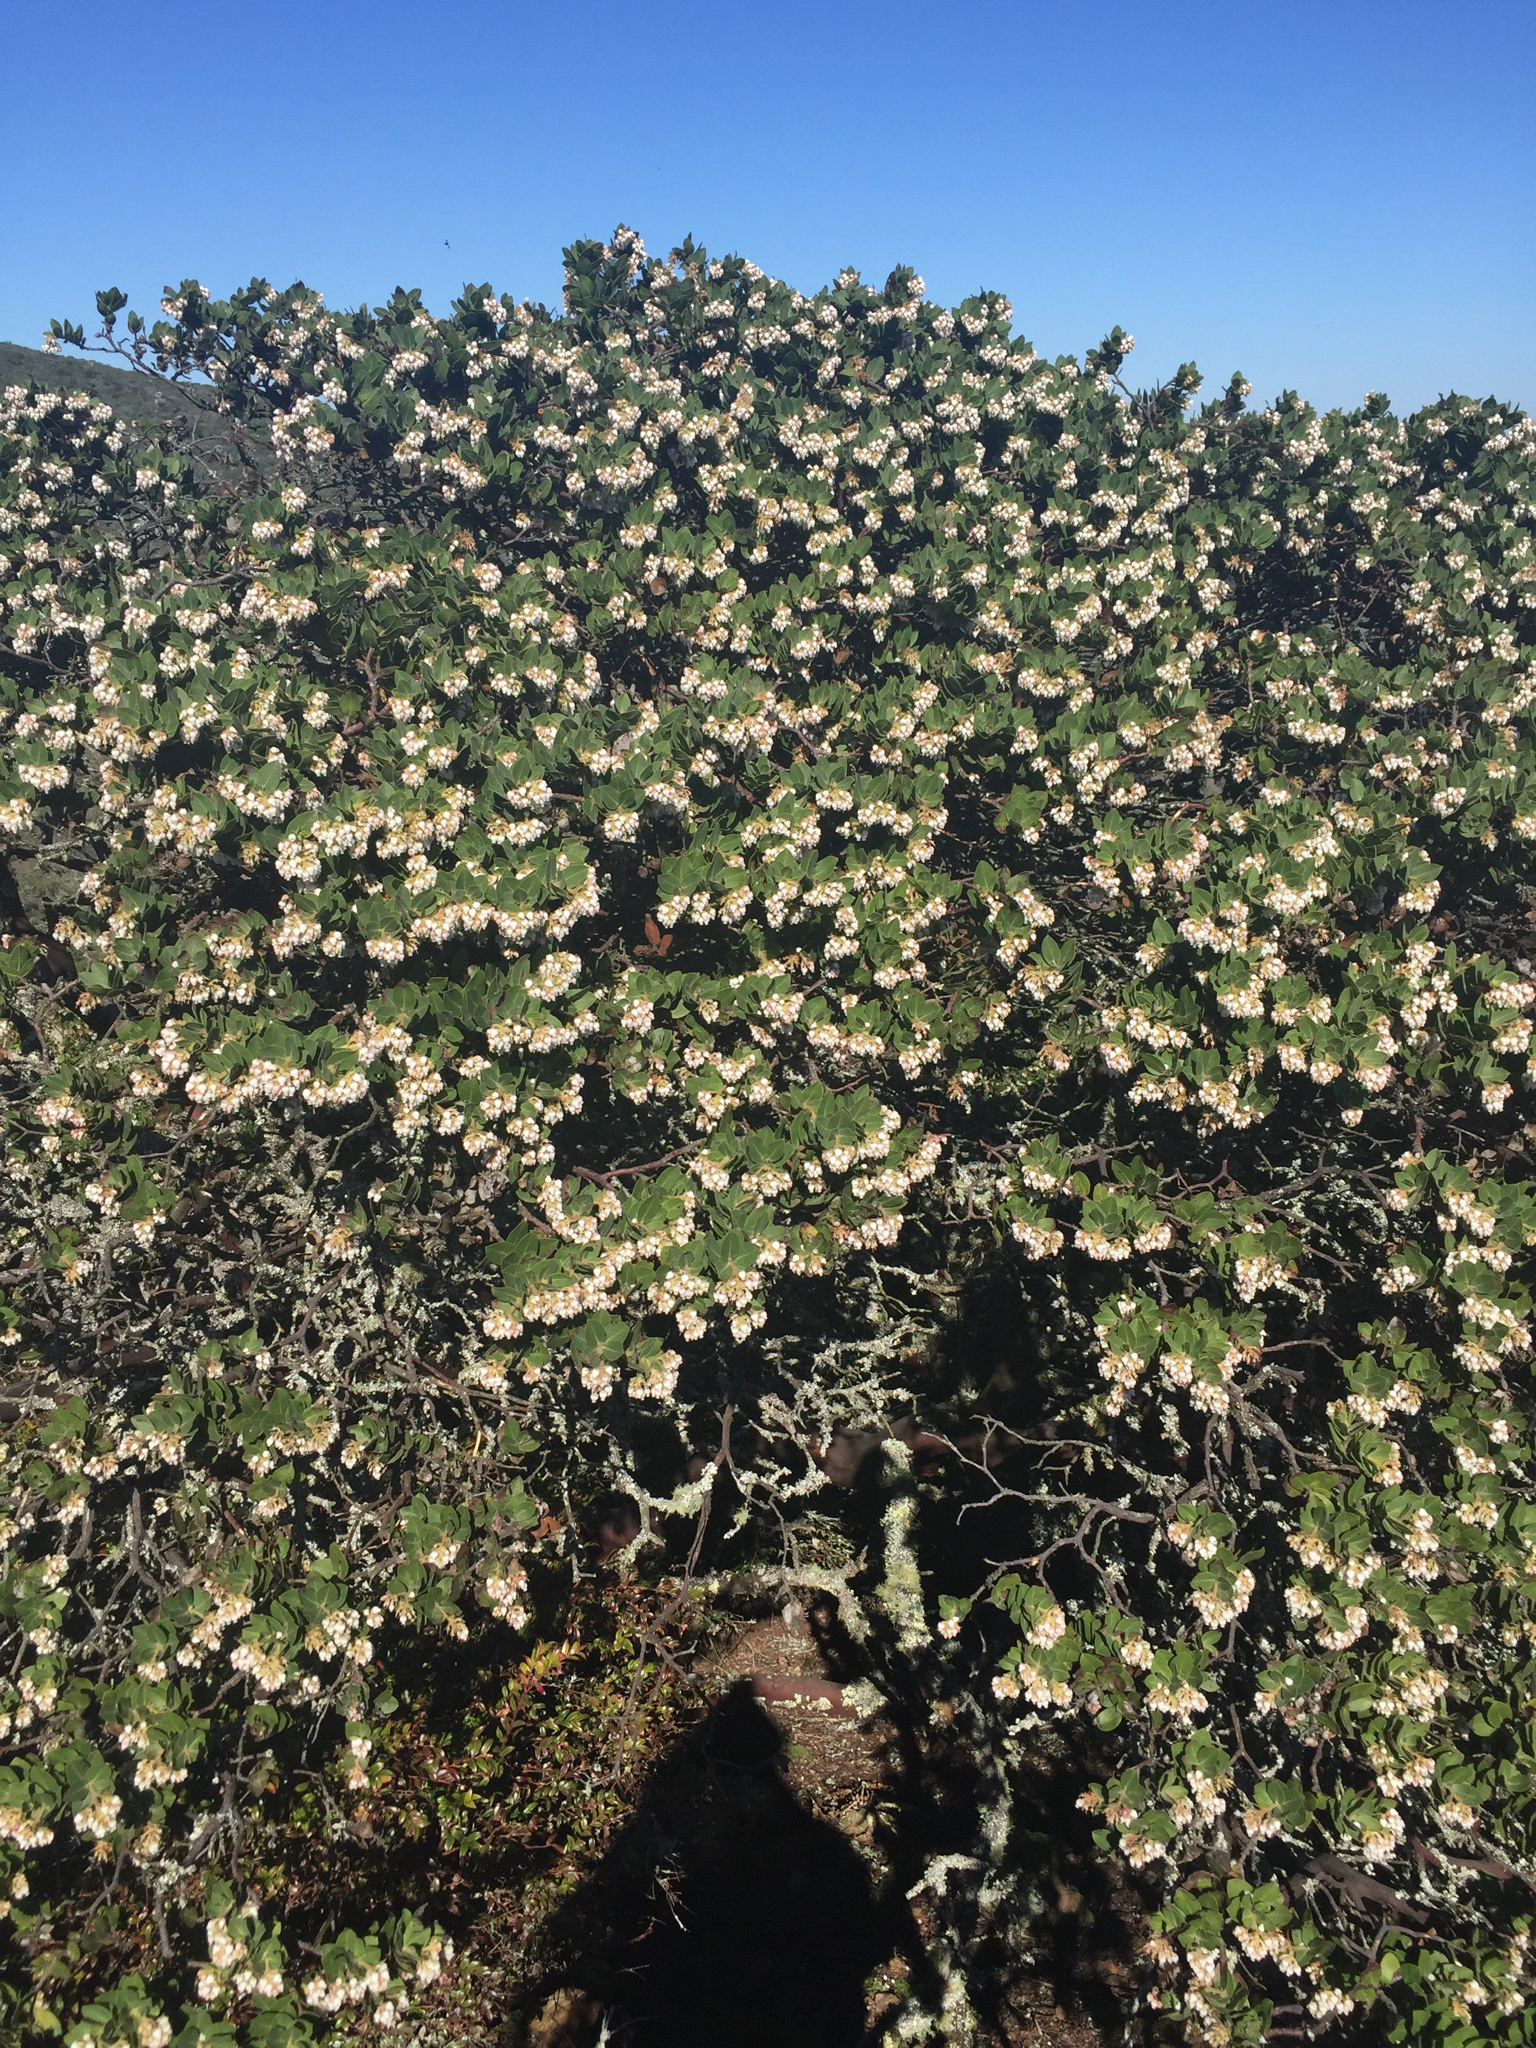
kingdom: Plantae
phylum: Tracheophyta
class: Magnoliopsida
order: Ericales
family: Ericaceae
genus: Arctostaphylos
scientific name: Arctostaphylos montaraensis
